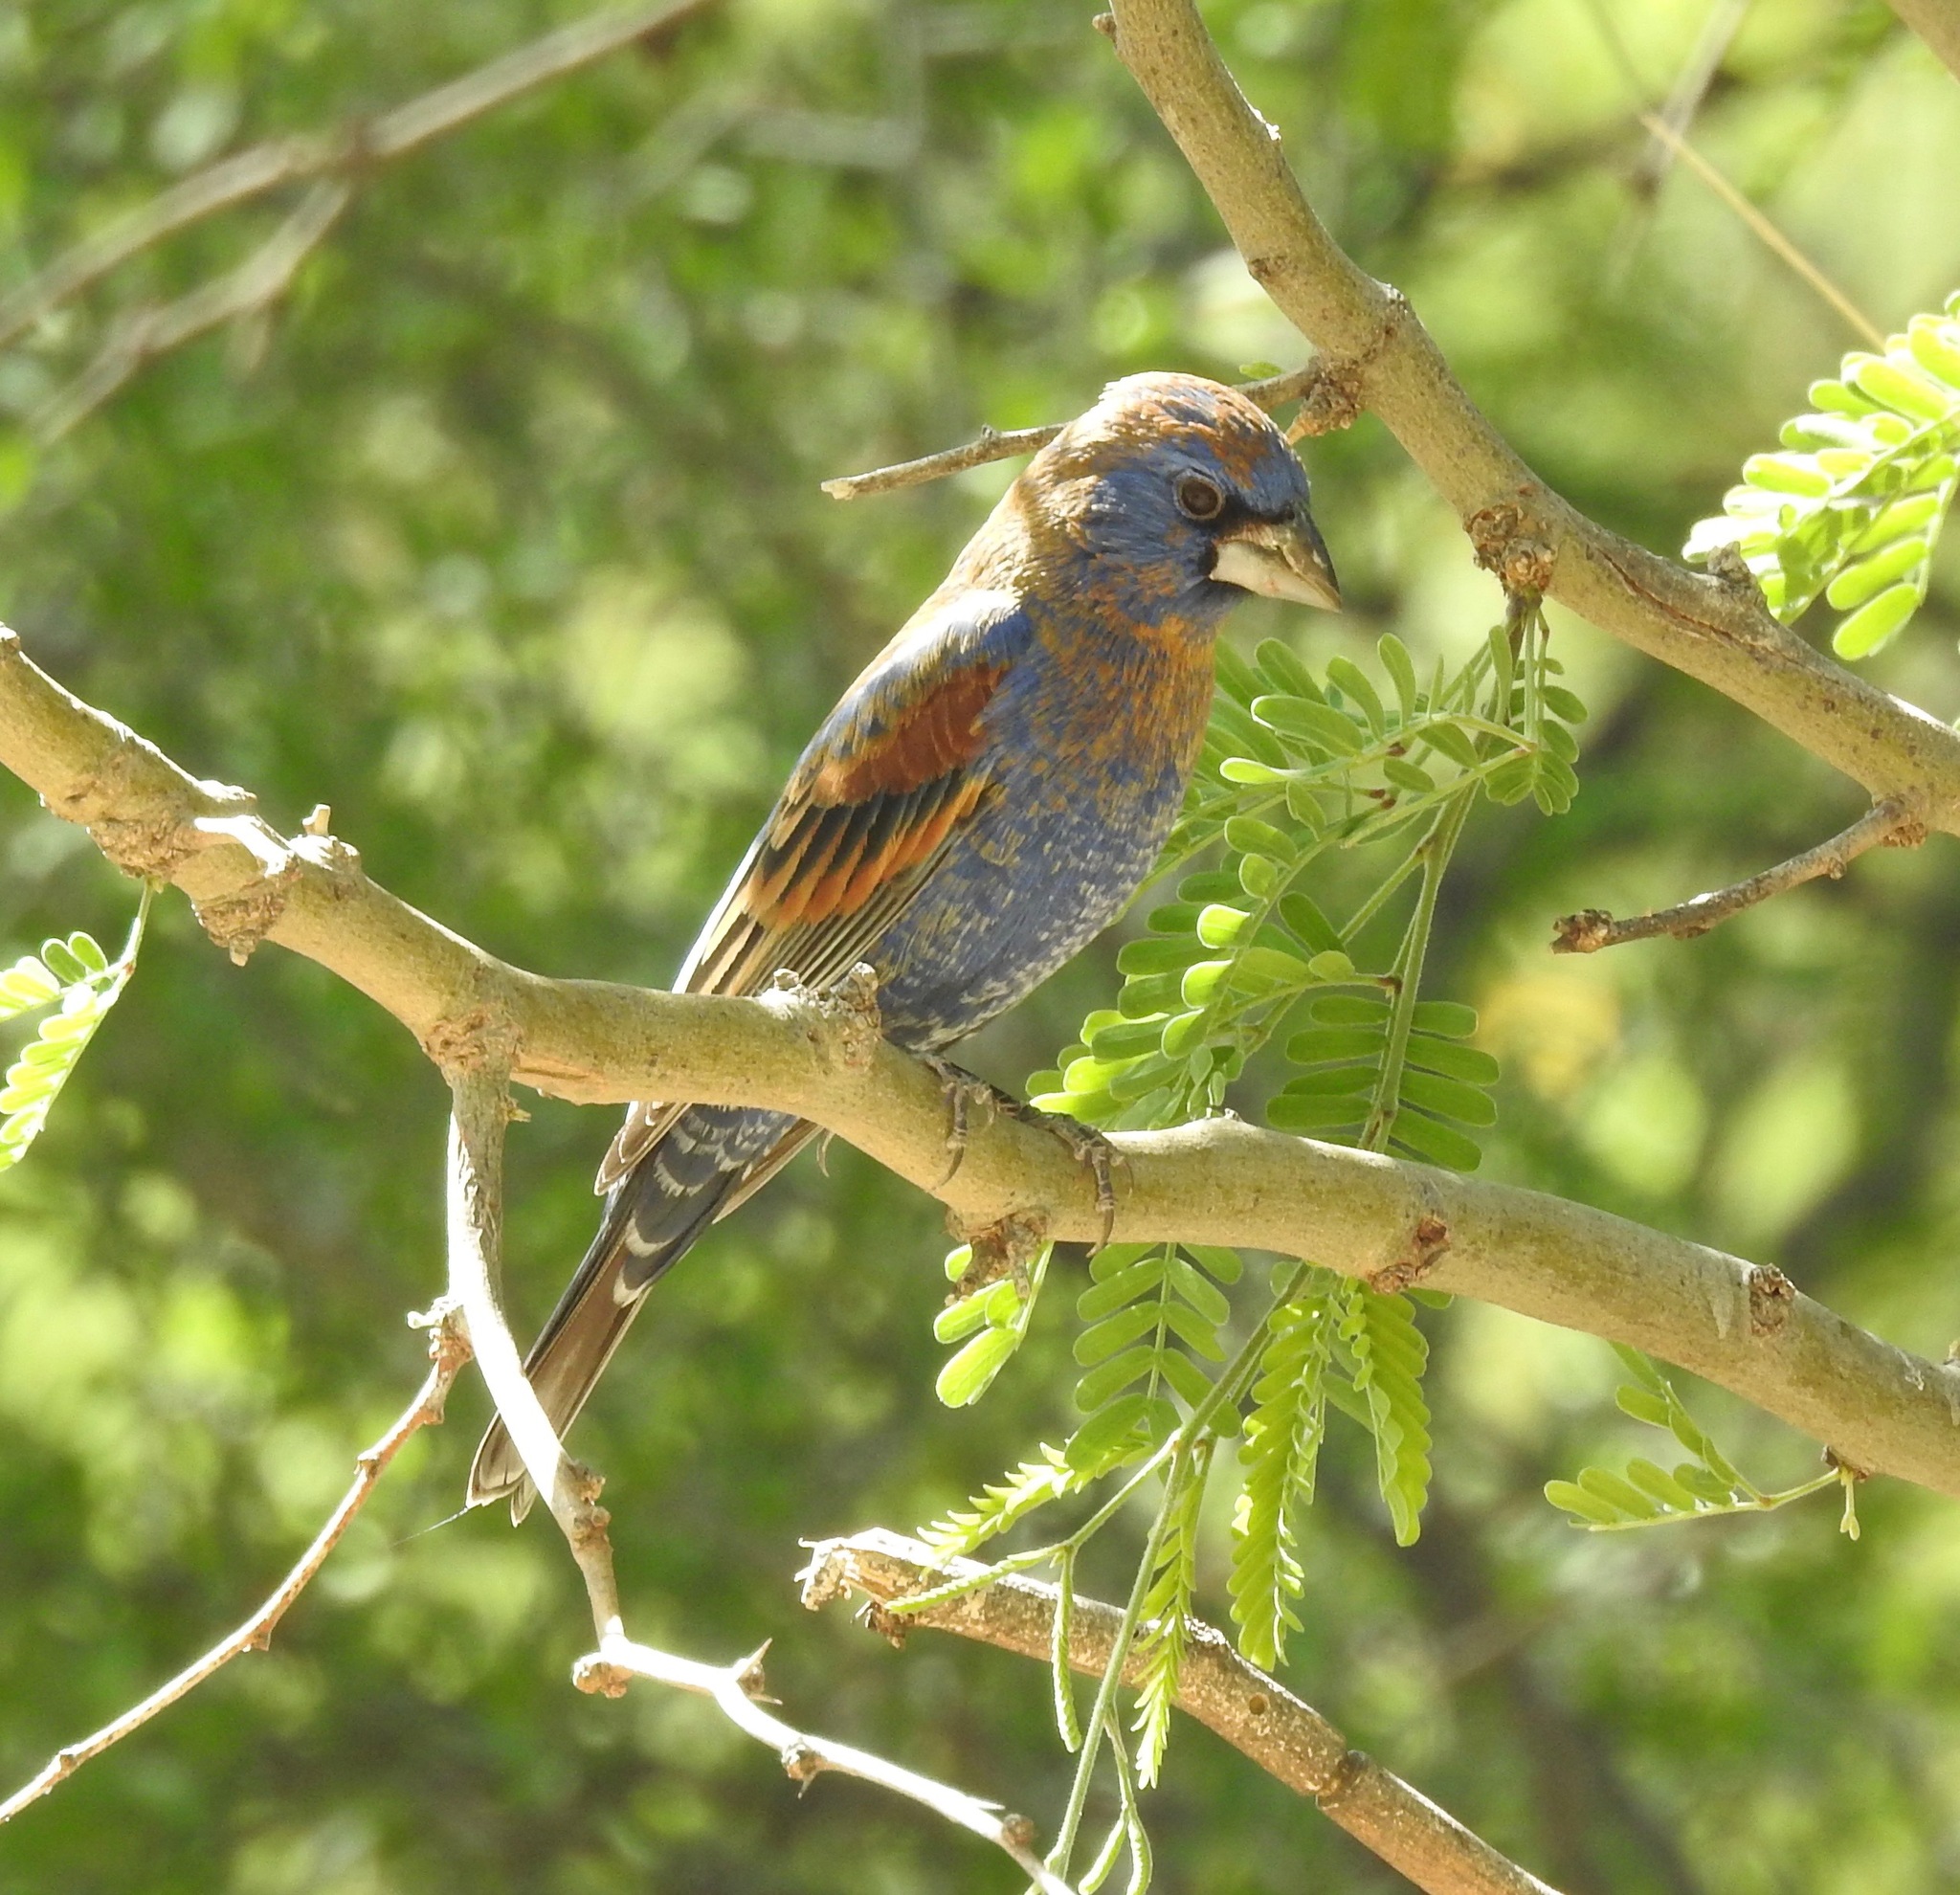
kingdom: Animalia
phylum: Chordata
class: Aves
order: Passeriformes
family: Cardinalidae
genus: Passerina
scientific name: Passerina caerulea
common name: Blue grosbeak
